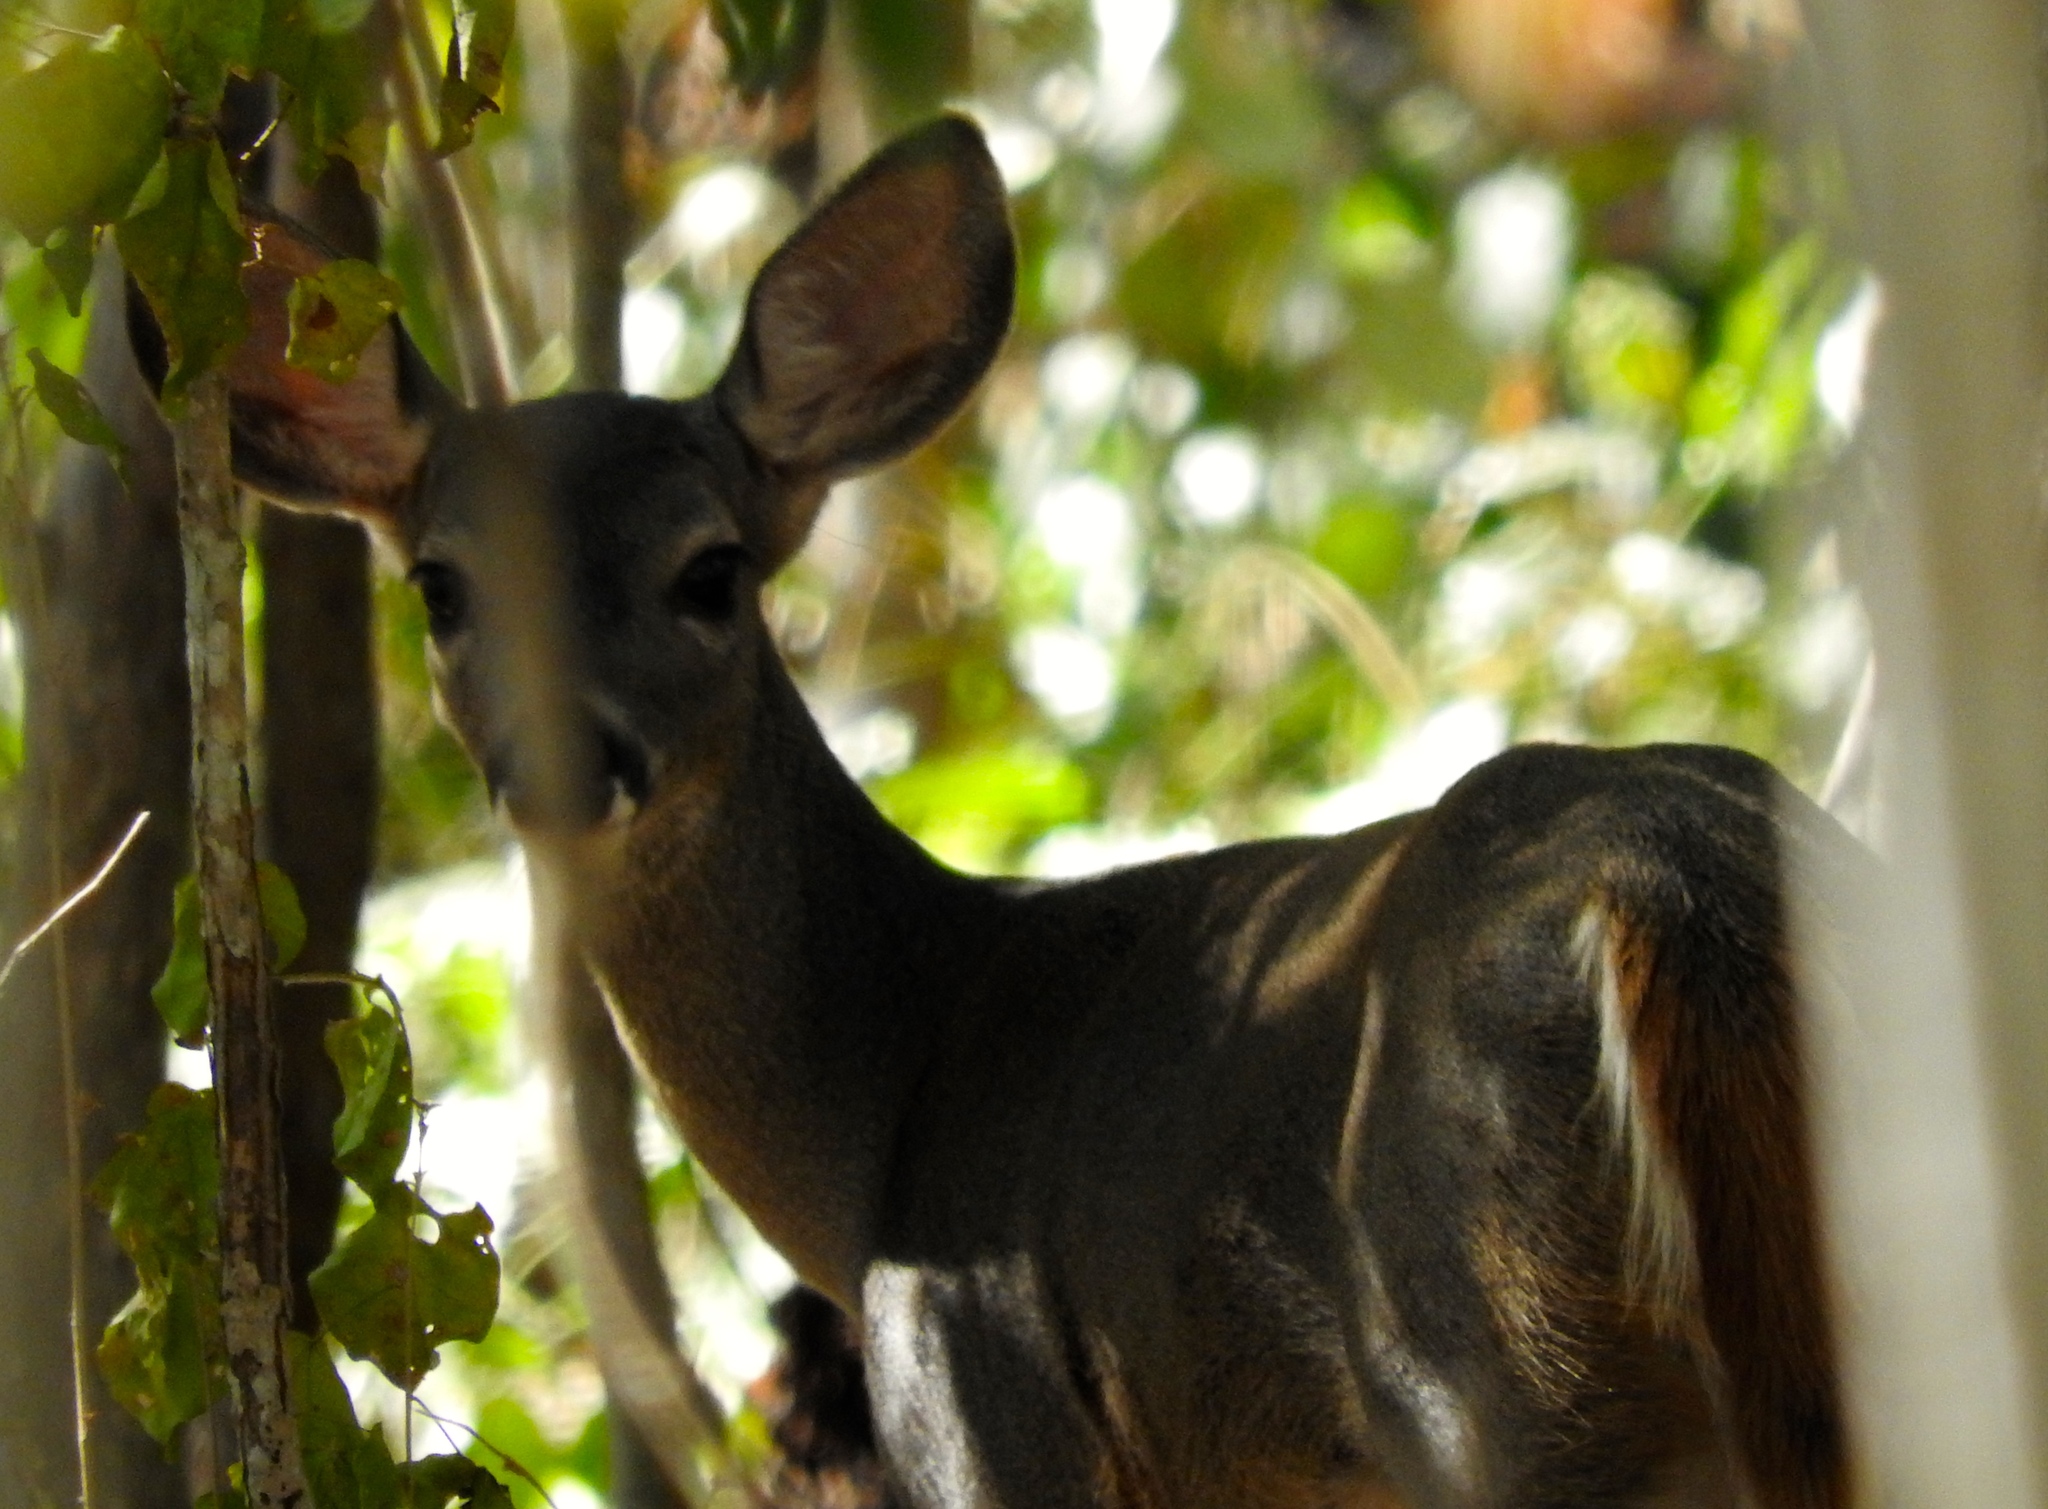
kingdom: Animalia
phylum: Chordata
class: Mammalia
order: Artiodactyla
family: Cervidae
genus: Odocoileus
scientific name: Odocoileus virginianus
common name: White-tailed deer
